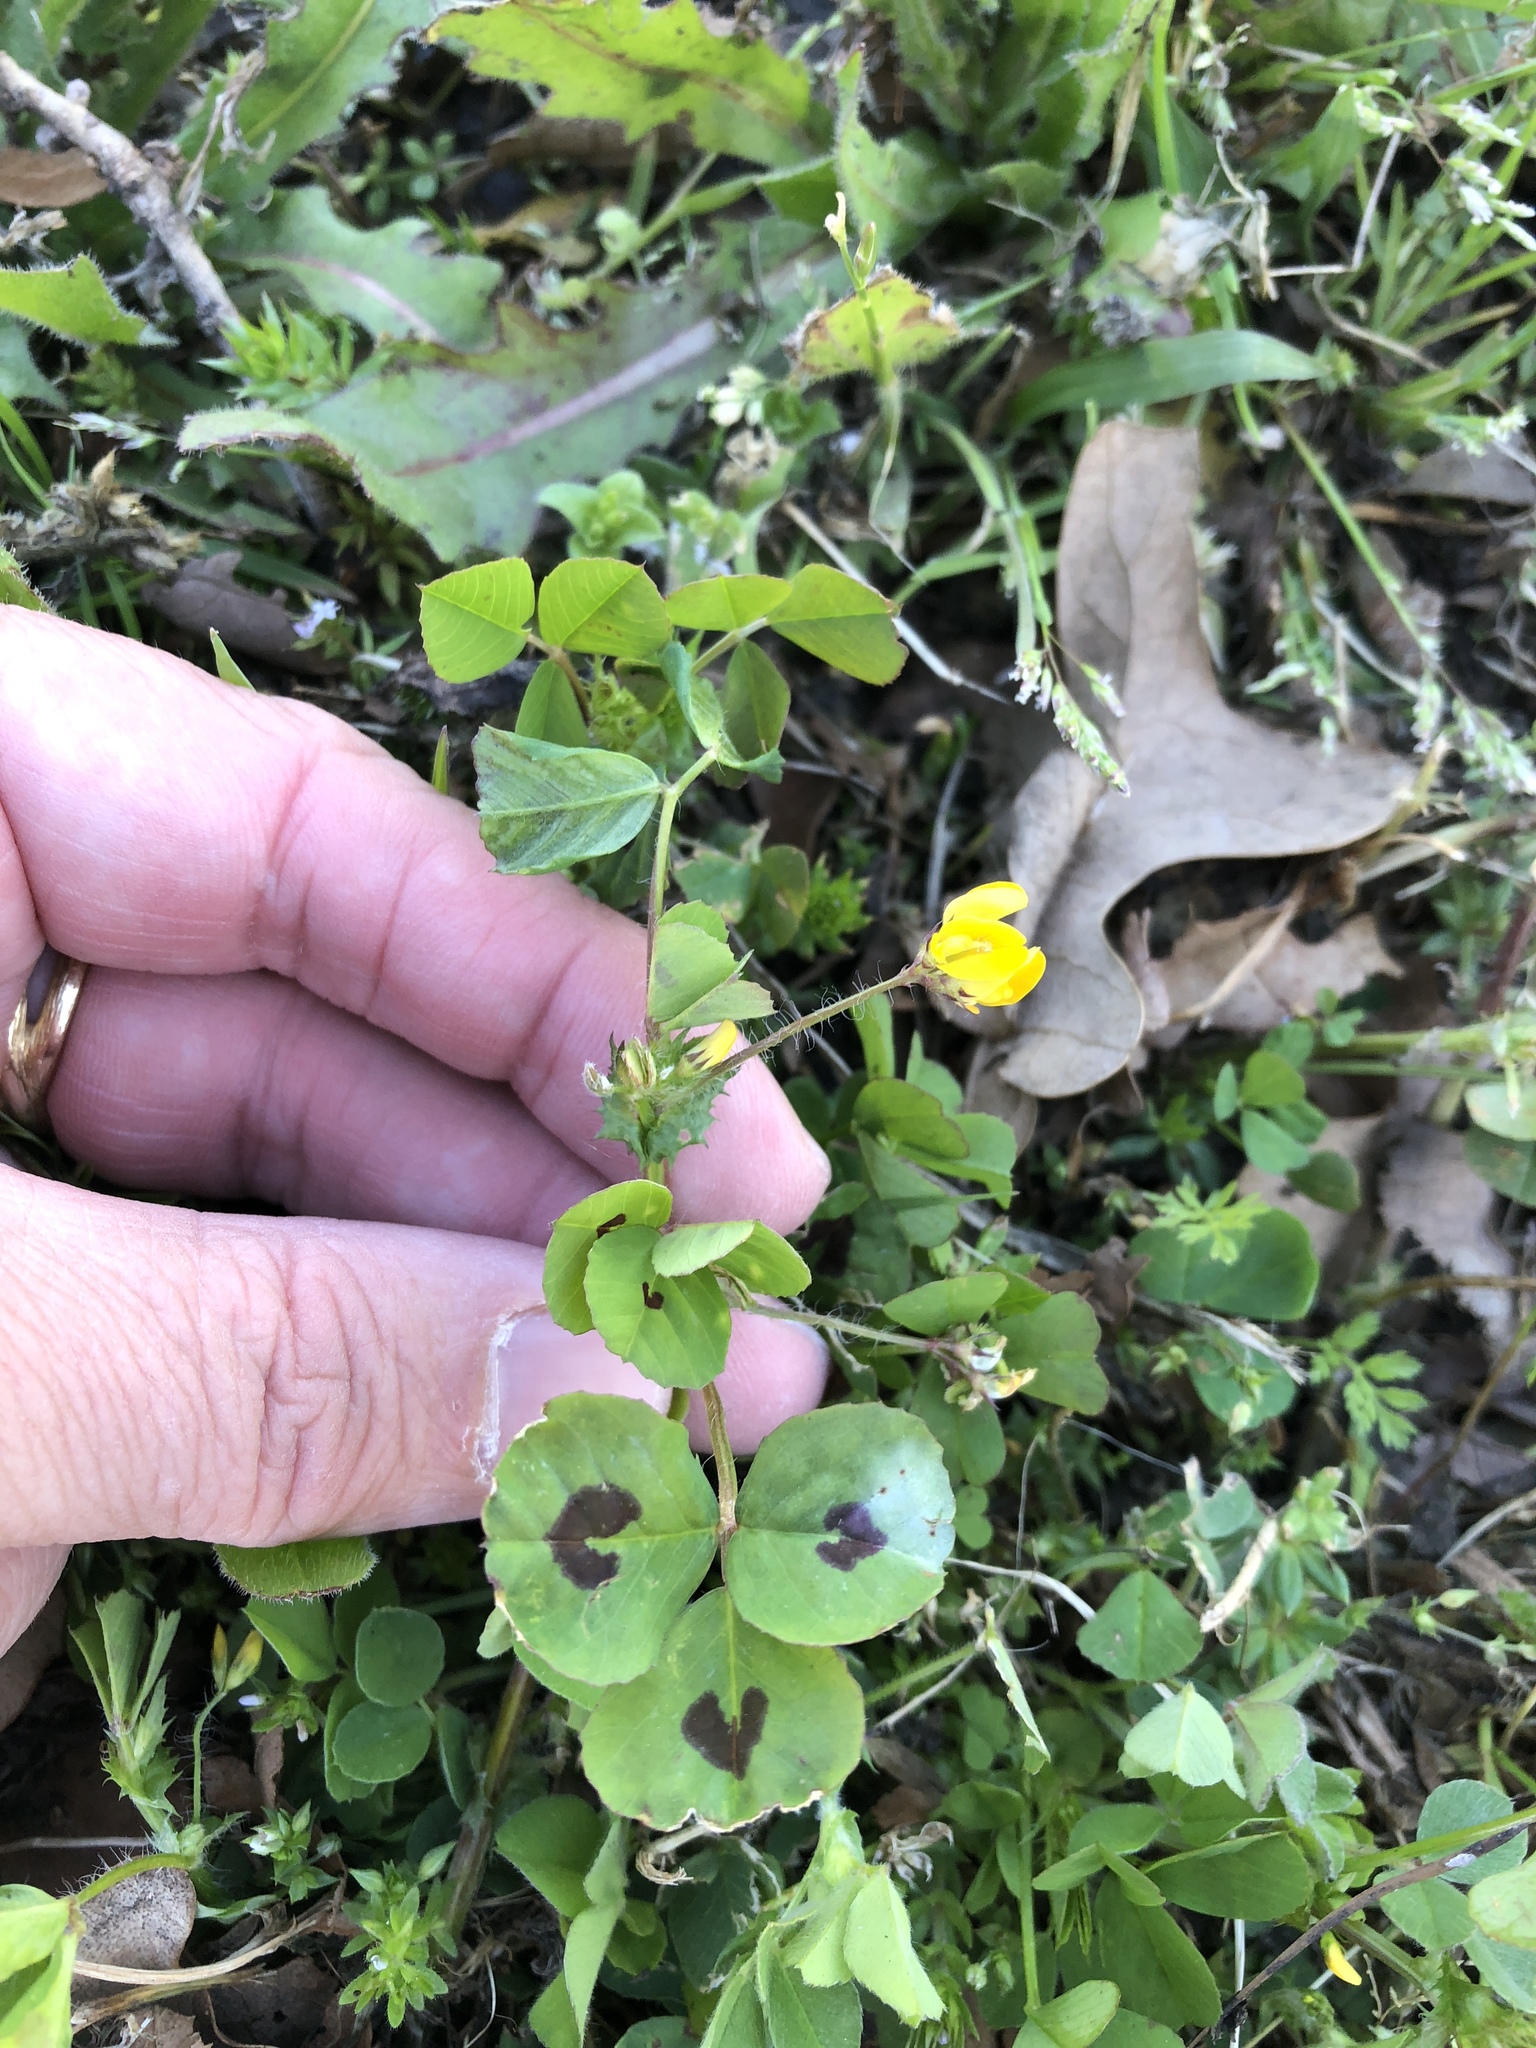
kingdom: Plantae
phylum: Tracheophyta
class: Magnoliopsida
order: Fabales
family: Fabaceae
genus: Medicago
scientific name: Medicago arabica
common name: Spotted medick
